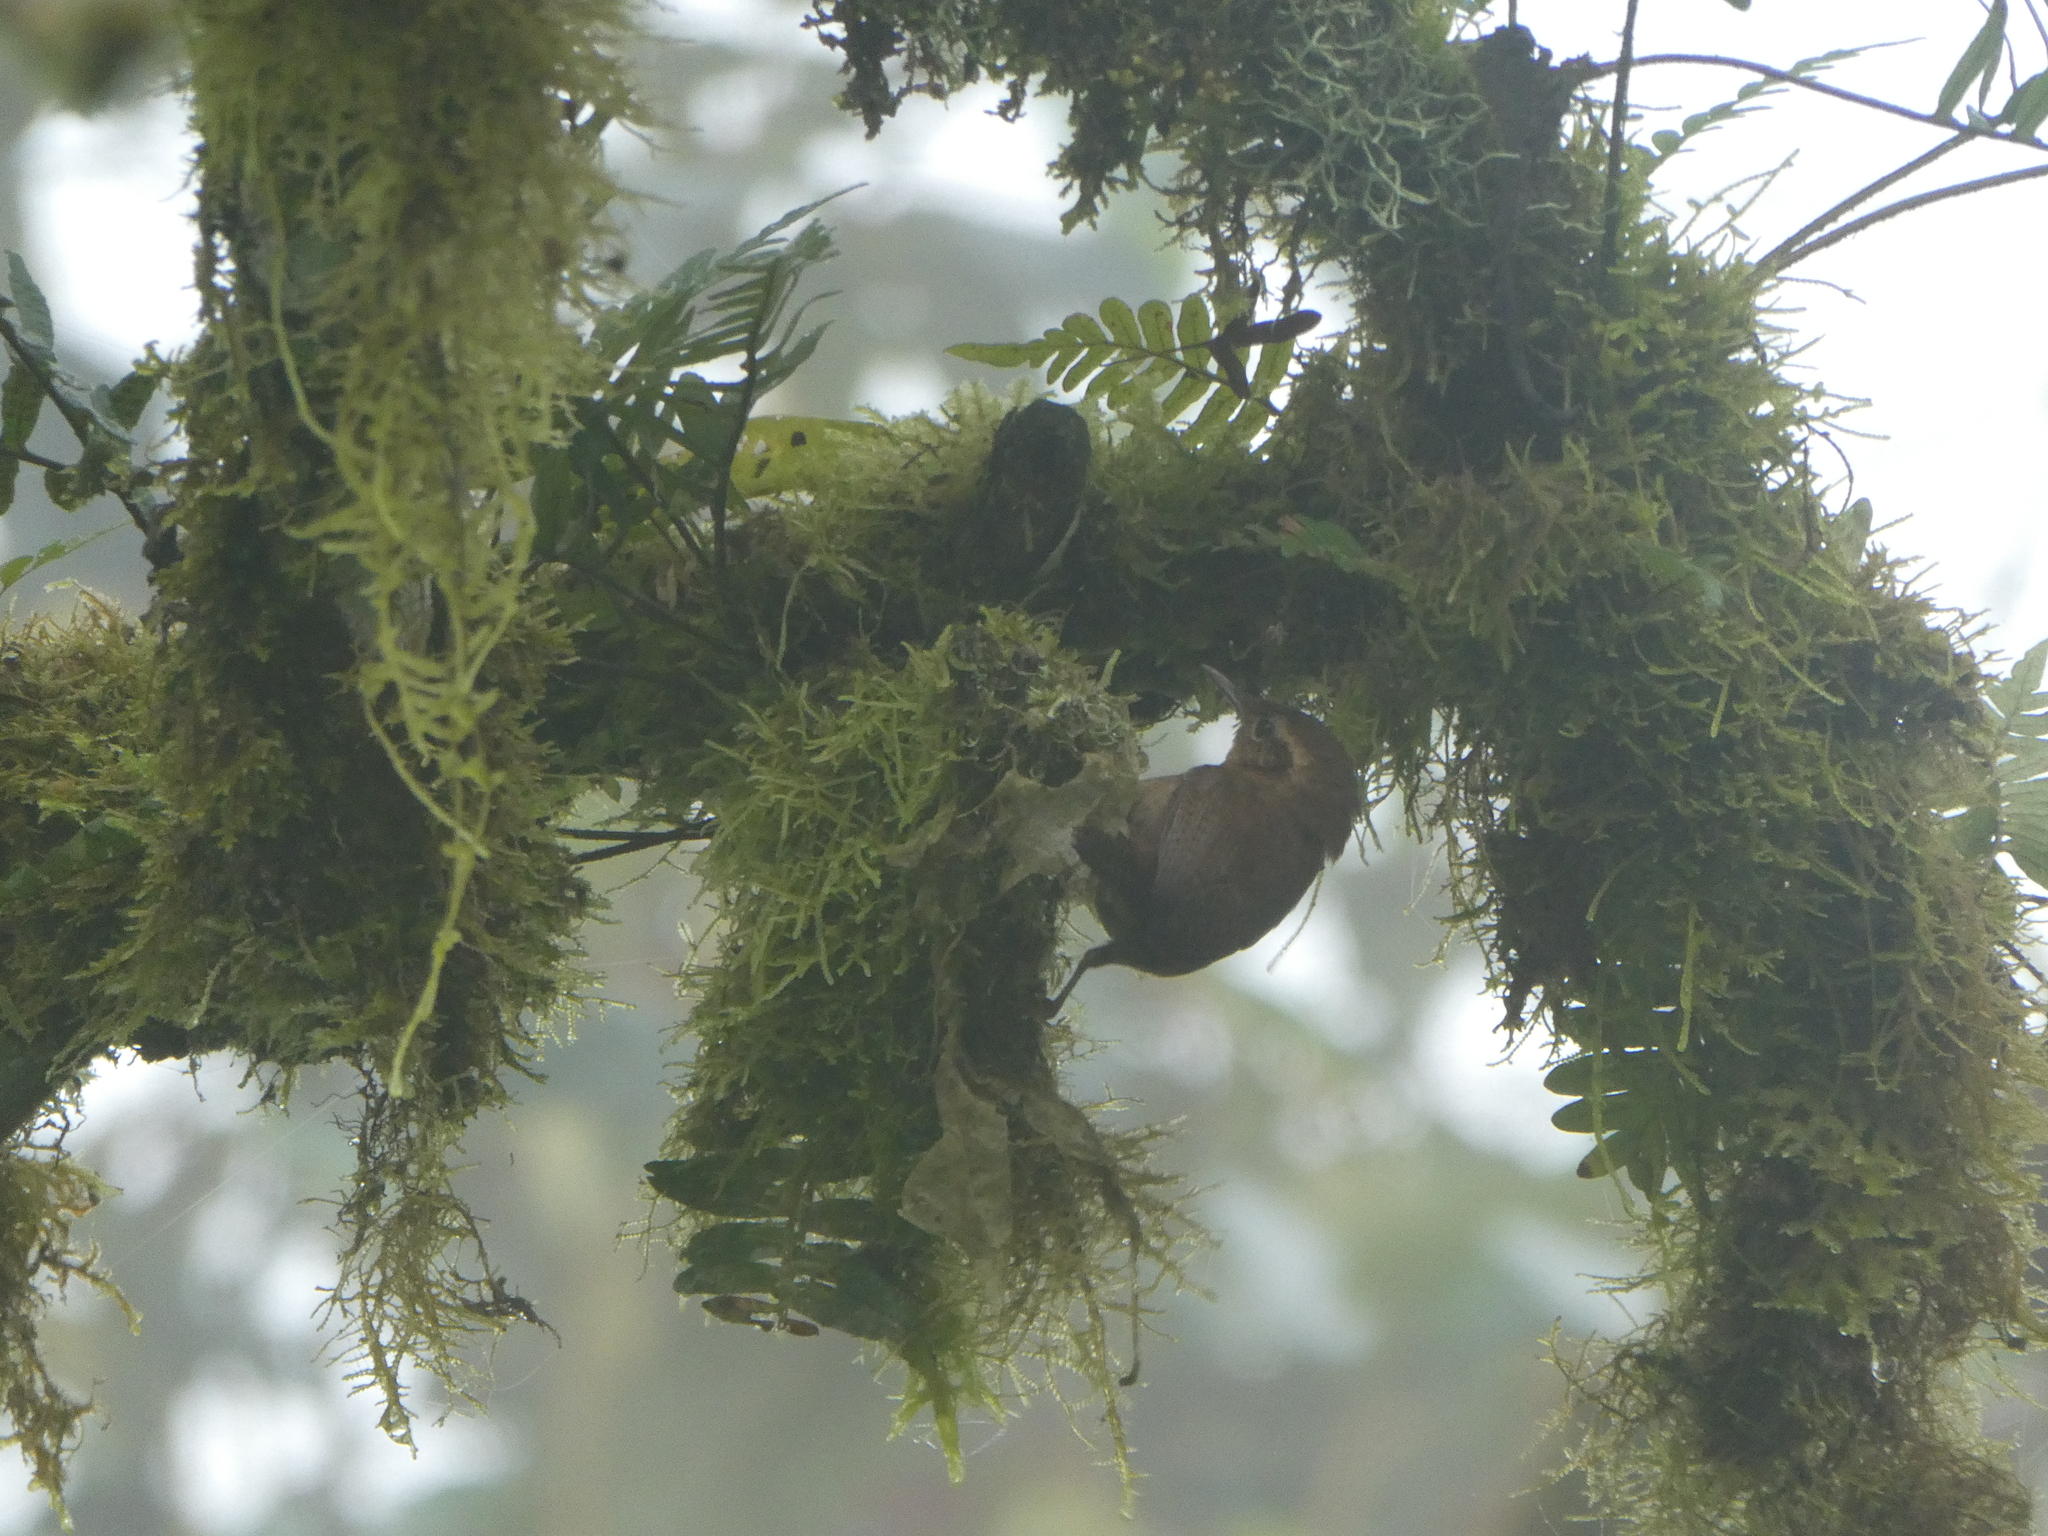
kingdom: Animalia
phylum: Chordata
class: Aves
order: Passeriformes
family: Troglodytidae
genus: Troglodytes
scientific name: Troglodytes solstitialis
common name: Mountain wren
